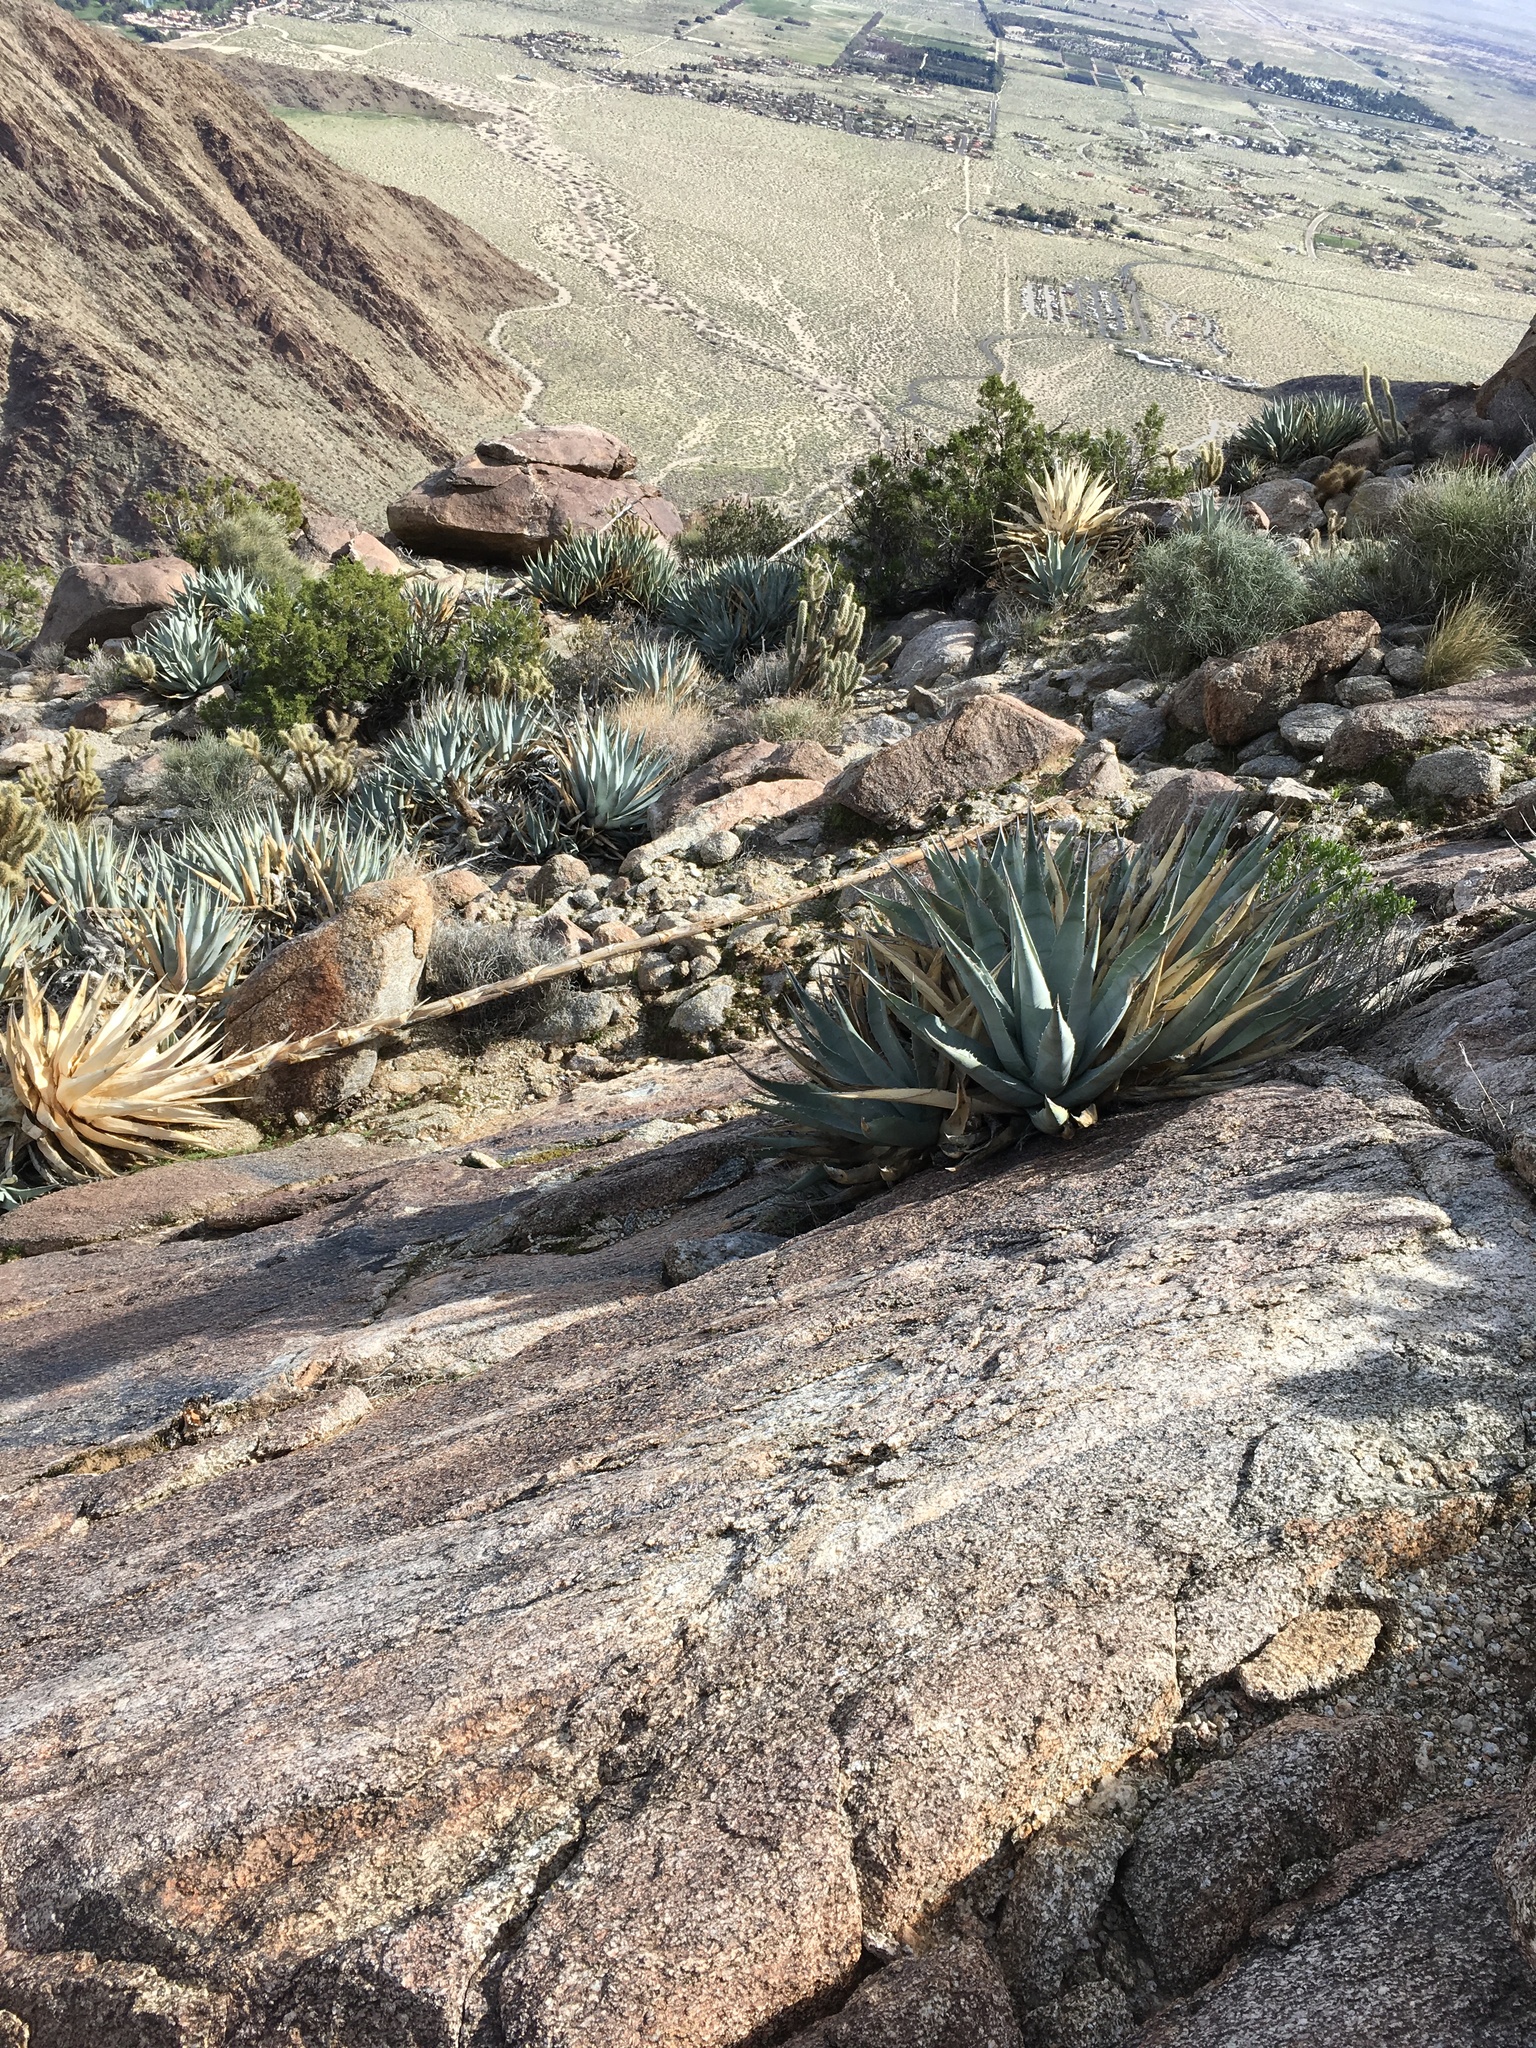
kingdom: Plantae
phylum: Tracheophyta
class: Liliopsida
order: Asparagales
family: Asparagaceae
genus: Agave
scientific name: Agave deserti
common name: Desert agave
